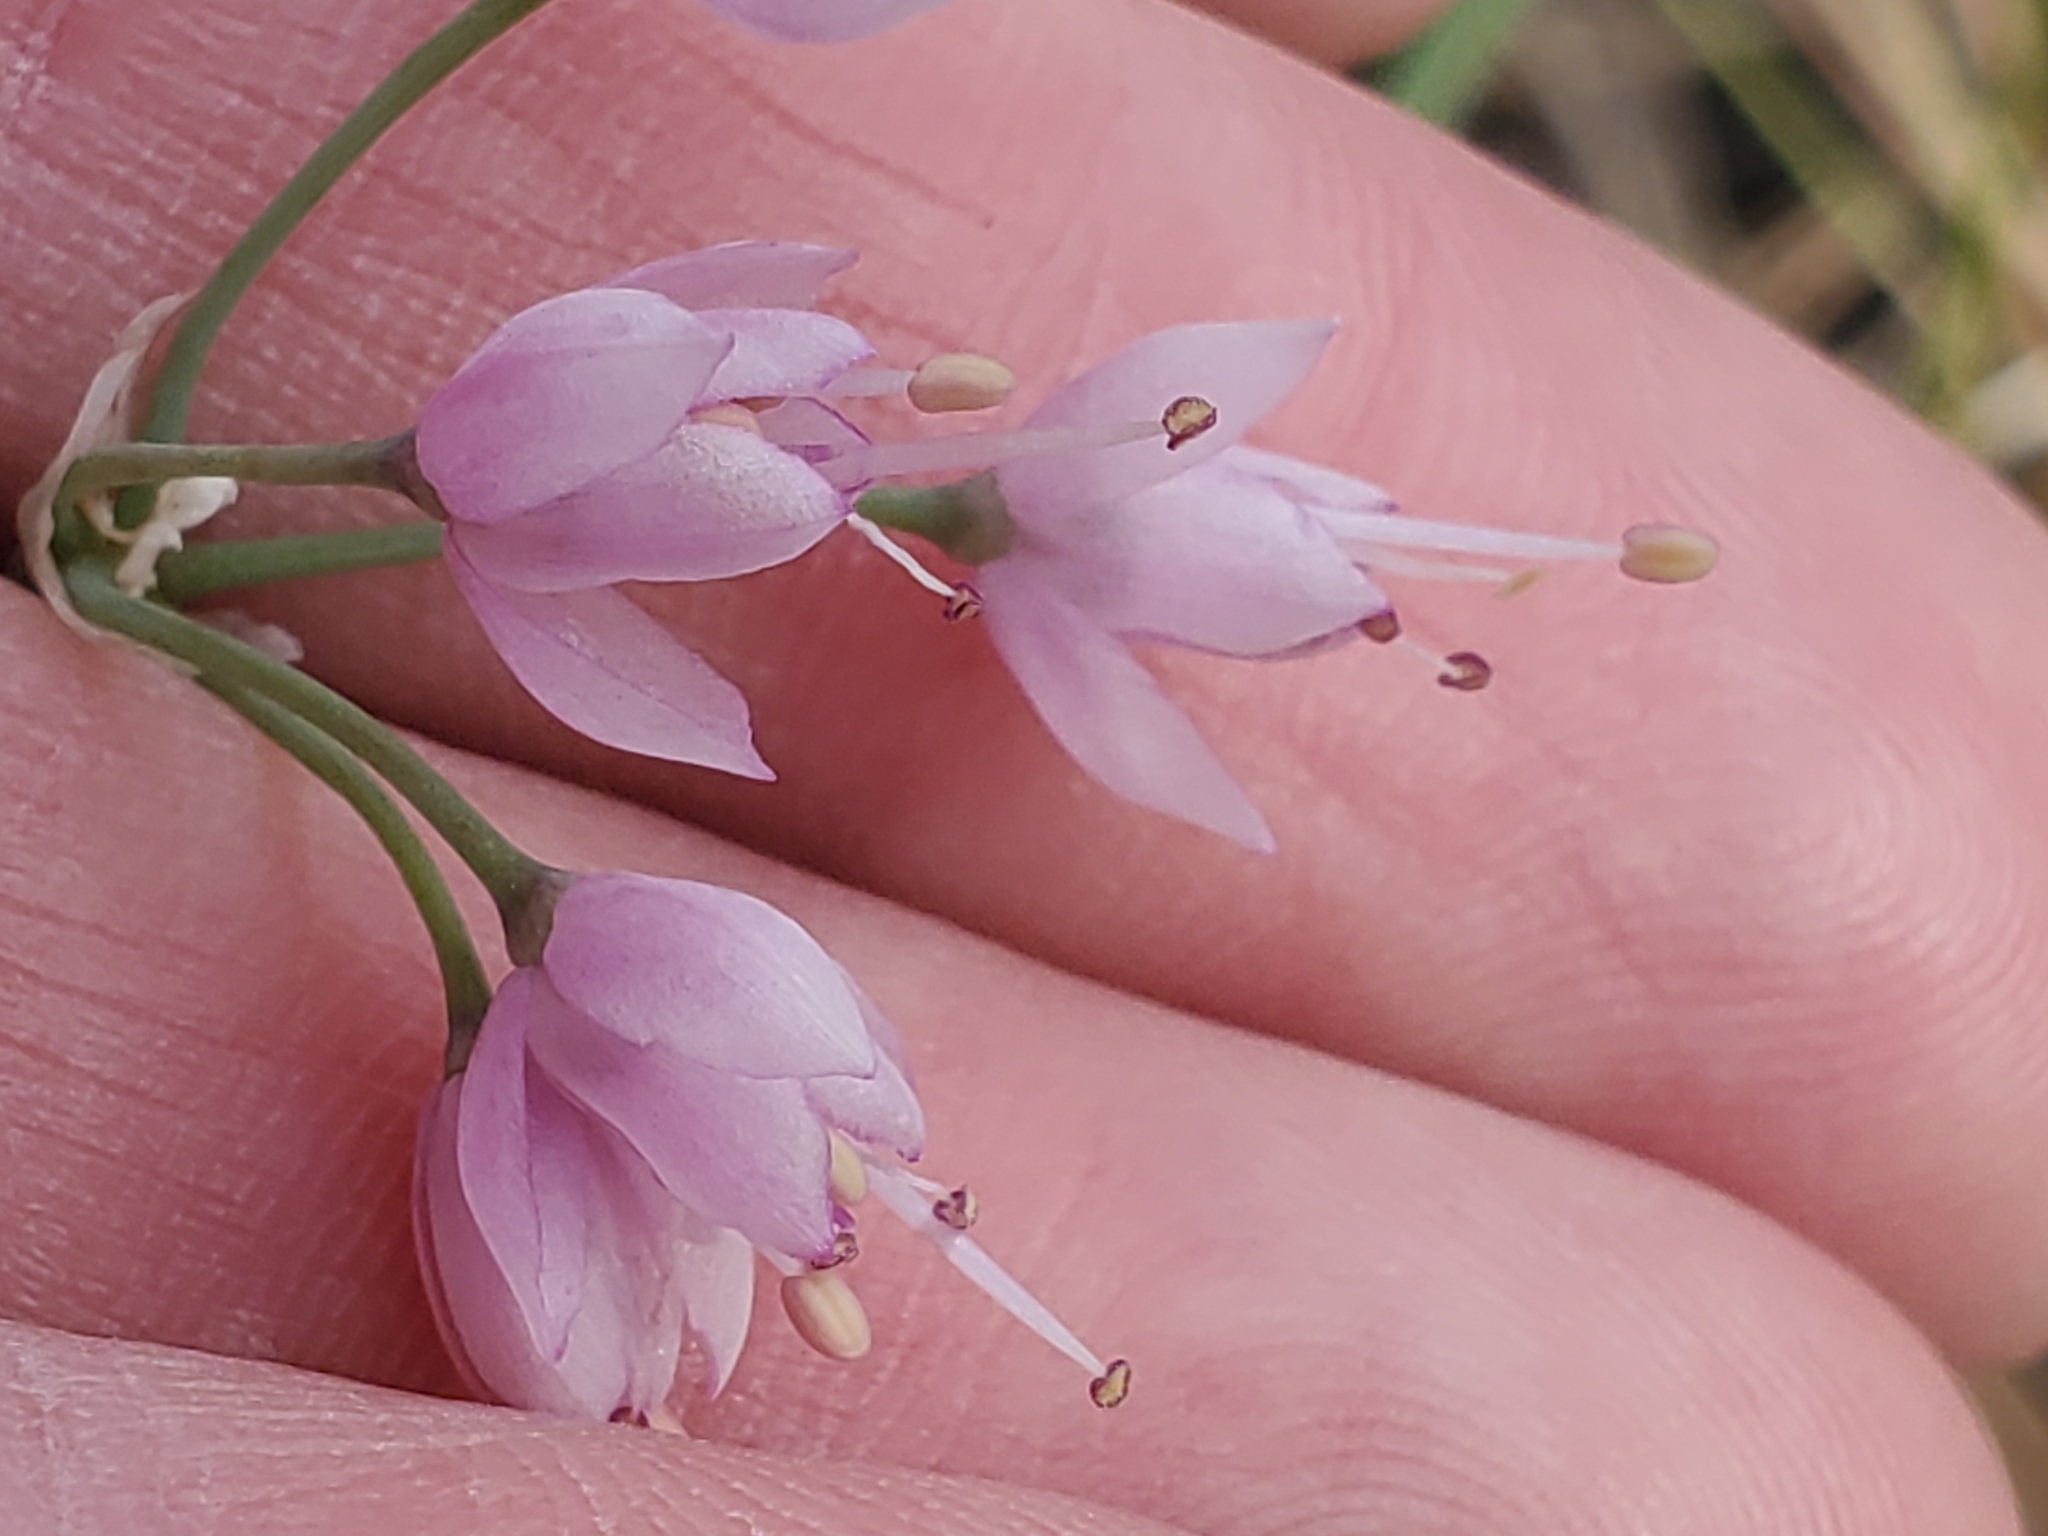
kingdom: Plantae
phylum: Tracheophyta
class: Liliopsida
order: Asparagales
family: Amaryllidaceae
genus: Allium
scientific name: Allium cernuum
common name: Nodding onion
